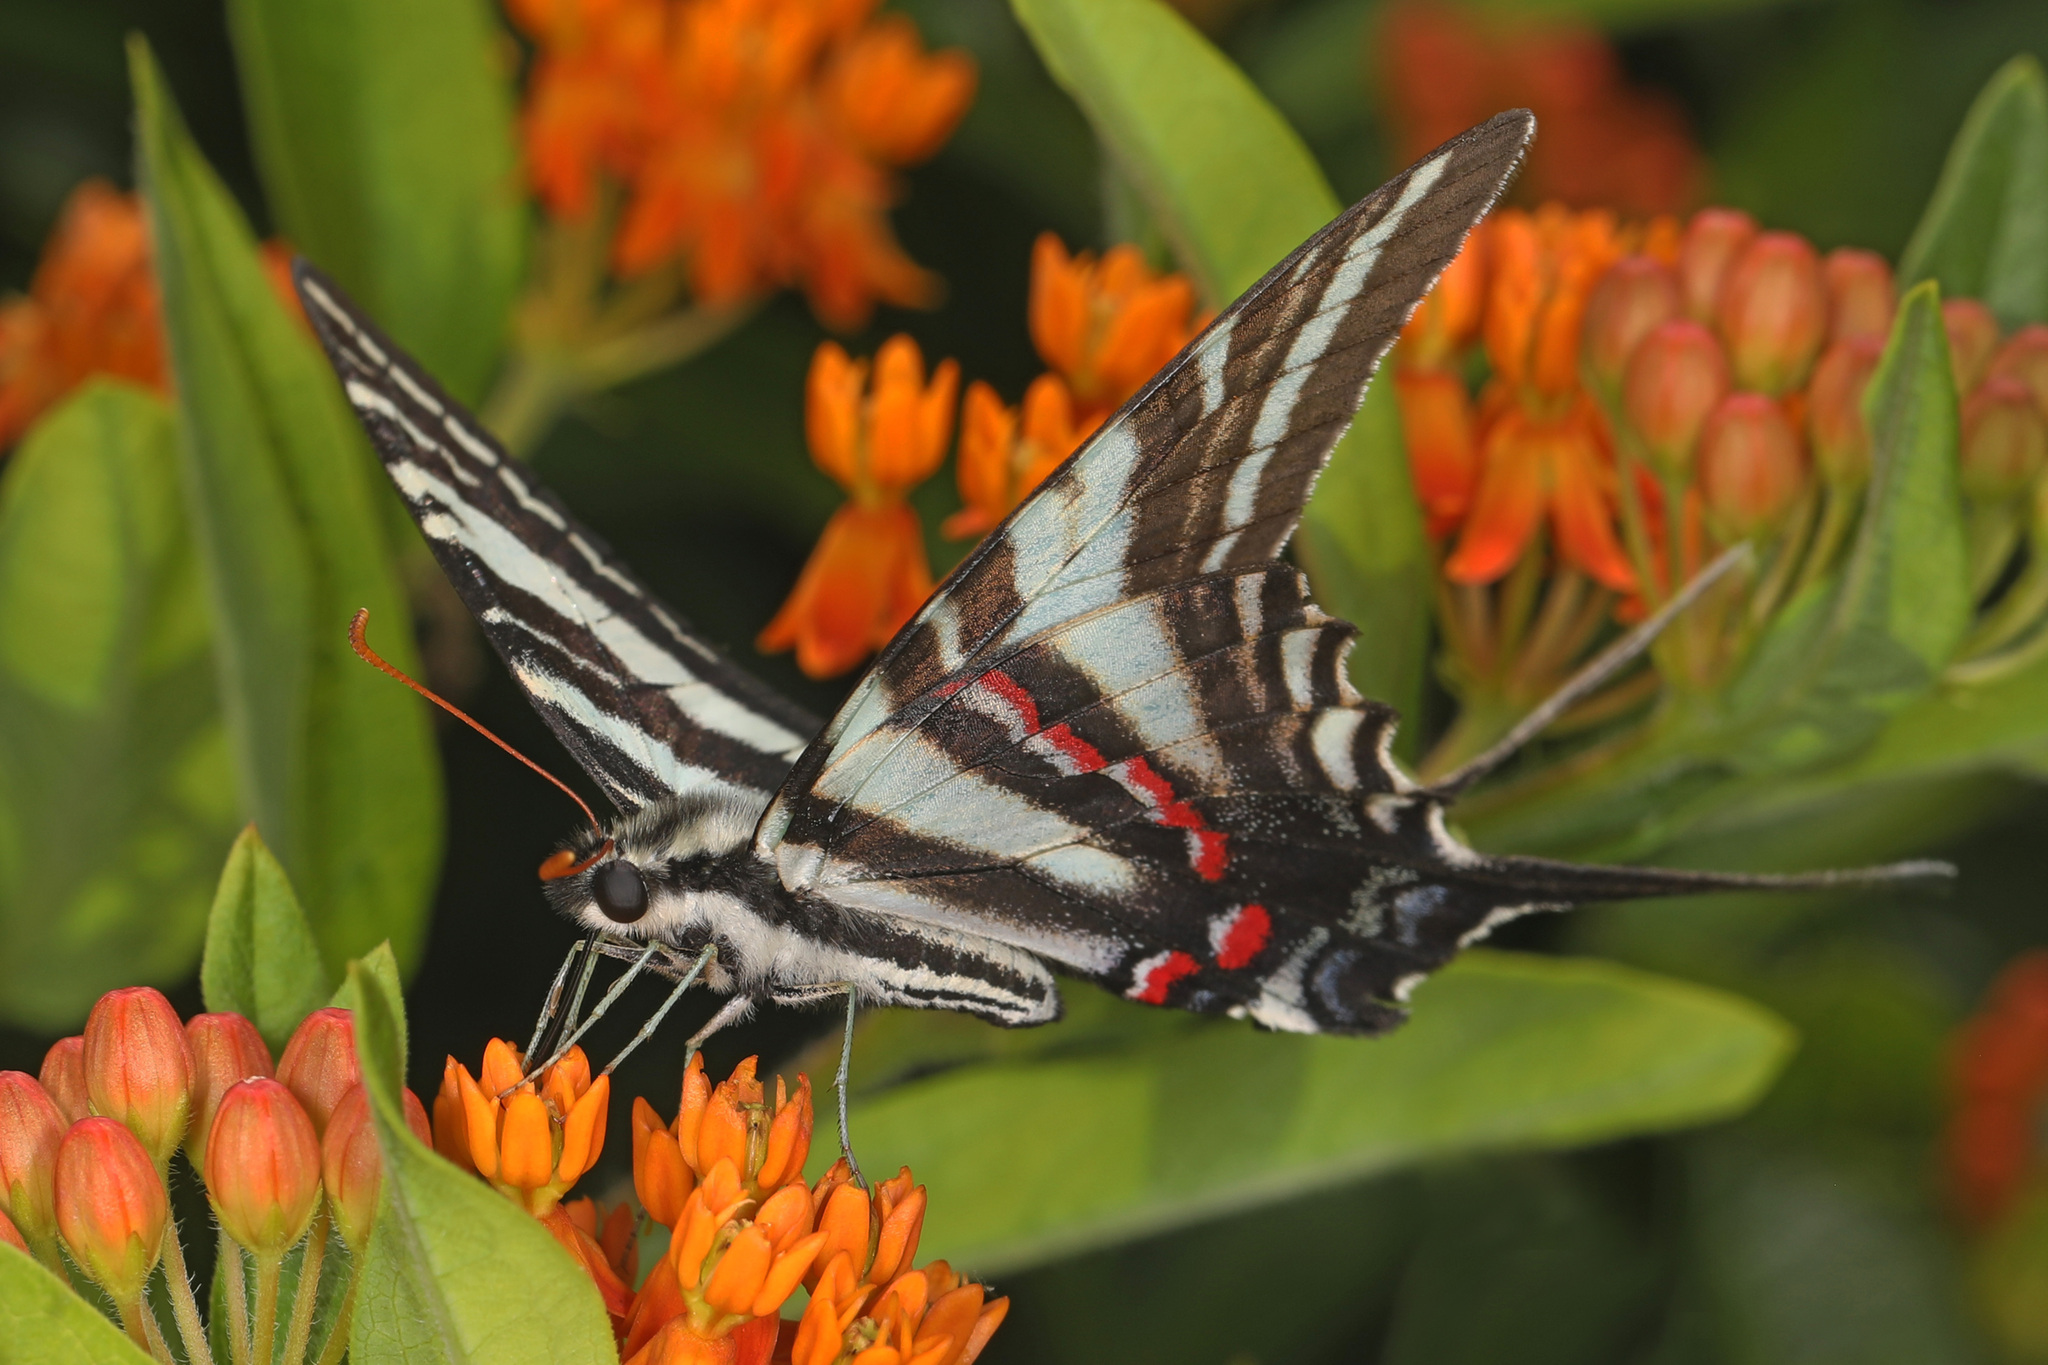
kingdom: Animalia
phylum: Arthropoda
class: Insecta
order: Lepidoptera
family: Papilionidae
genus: Protographium
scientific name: Protographium marcellus
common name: Zebra swallowtail
